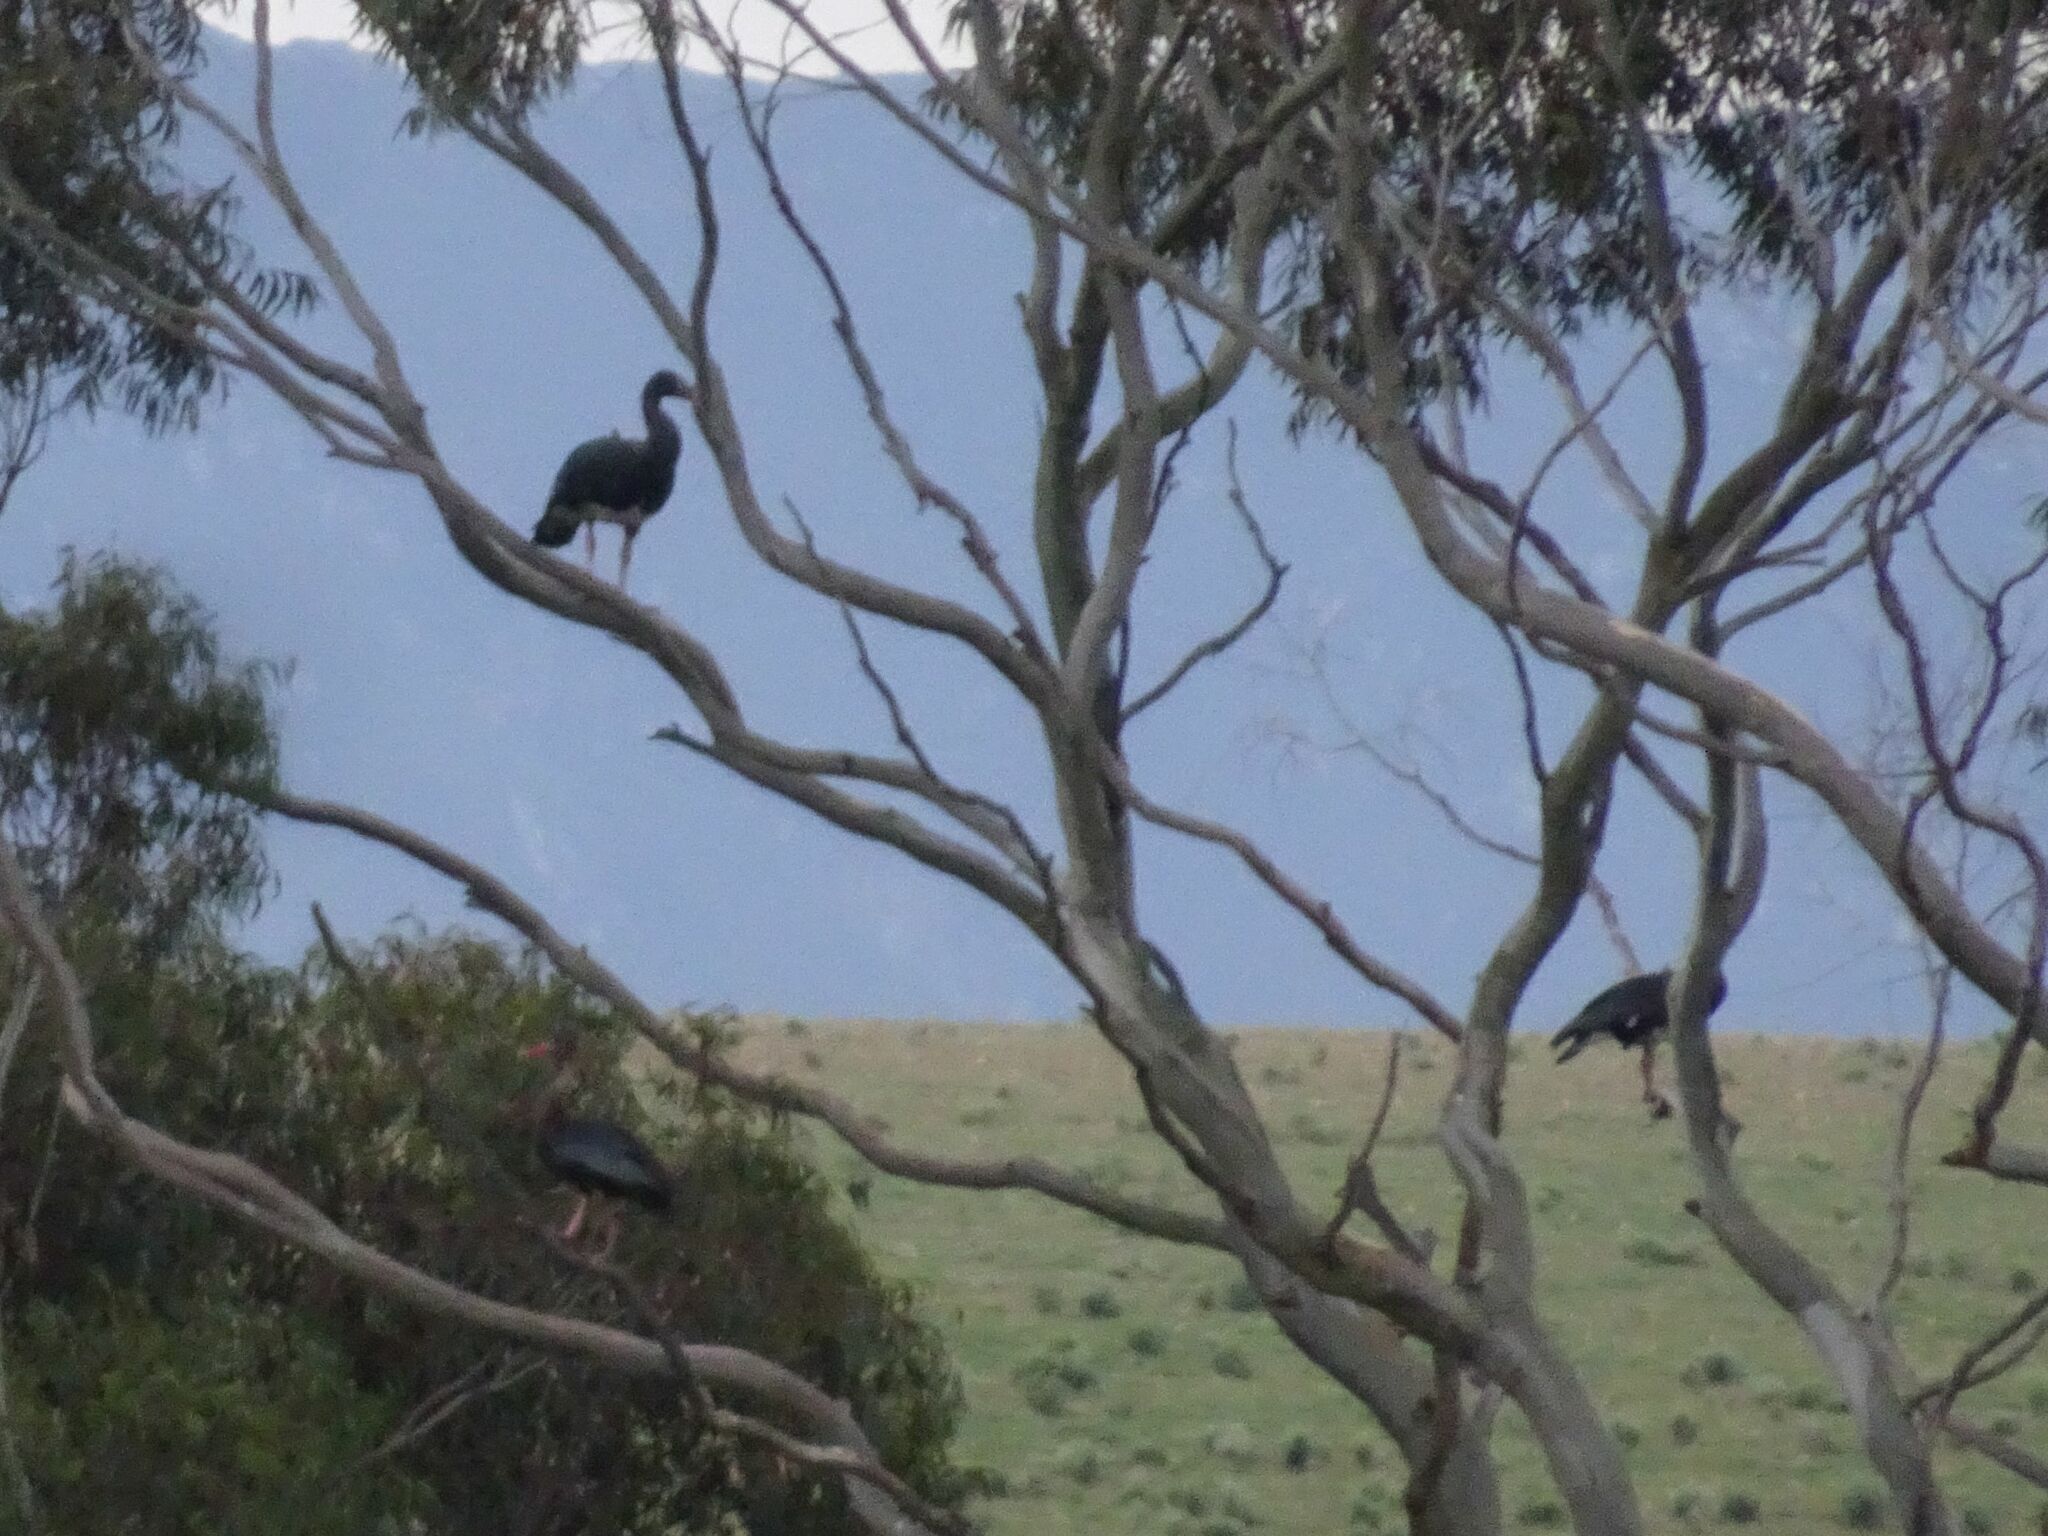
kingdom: Animalia
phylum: Chordata
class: Aves
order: Anseriformes
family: Anatidae
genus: Plectropterus
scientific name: Plectropterus gambensis
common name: Spur-winged goose
